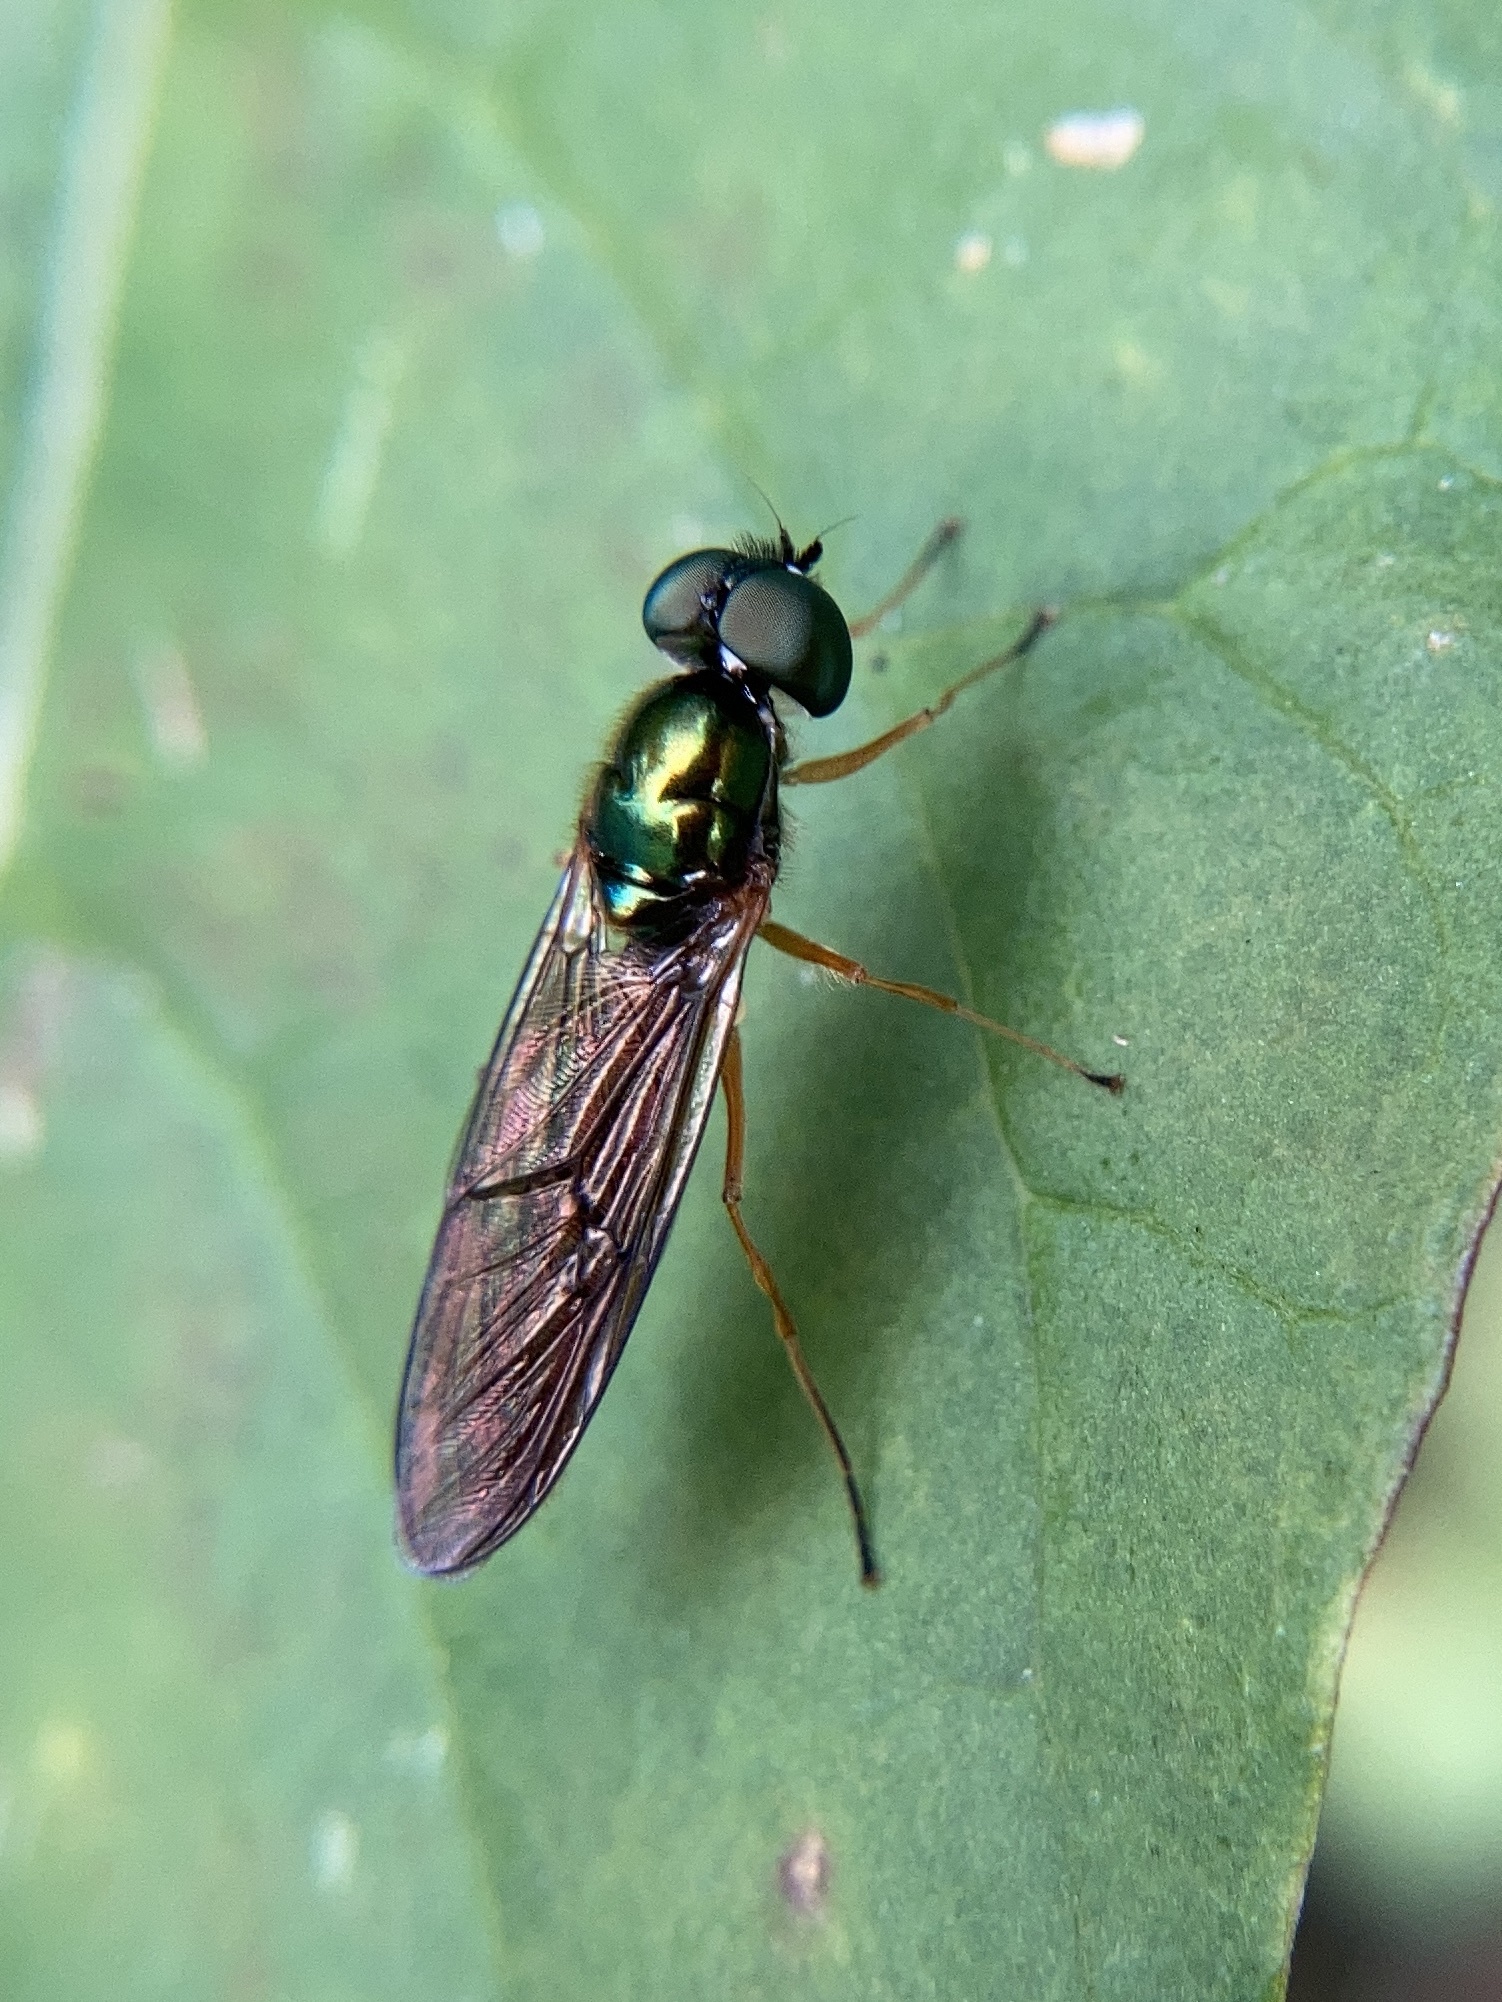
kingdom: Animalia
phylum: Arthropoda
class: Insecta
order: Diptera
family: Stratiomyidae
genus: Sargus
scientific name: Sargus bipunctatus
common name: Twin-spot centurion
